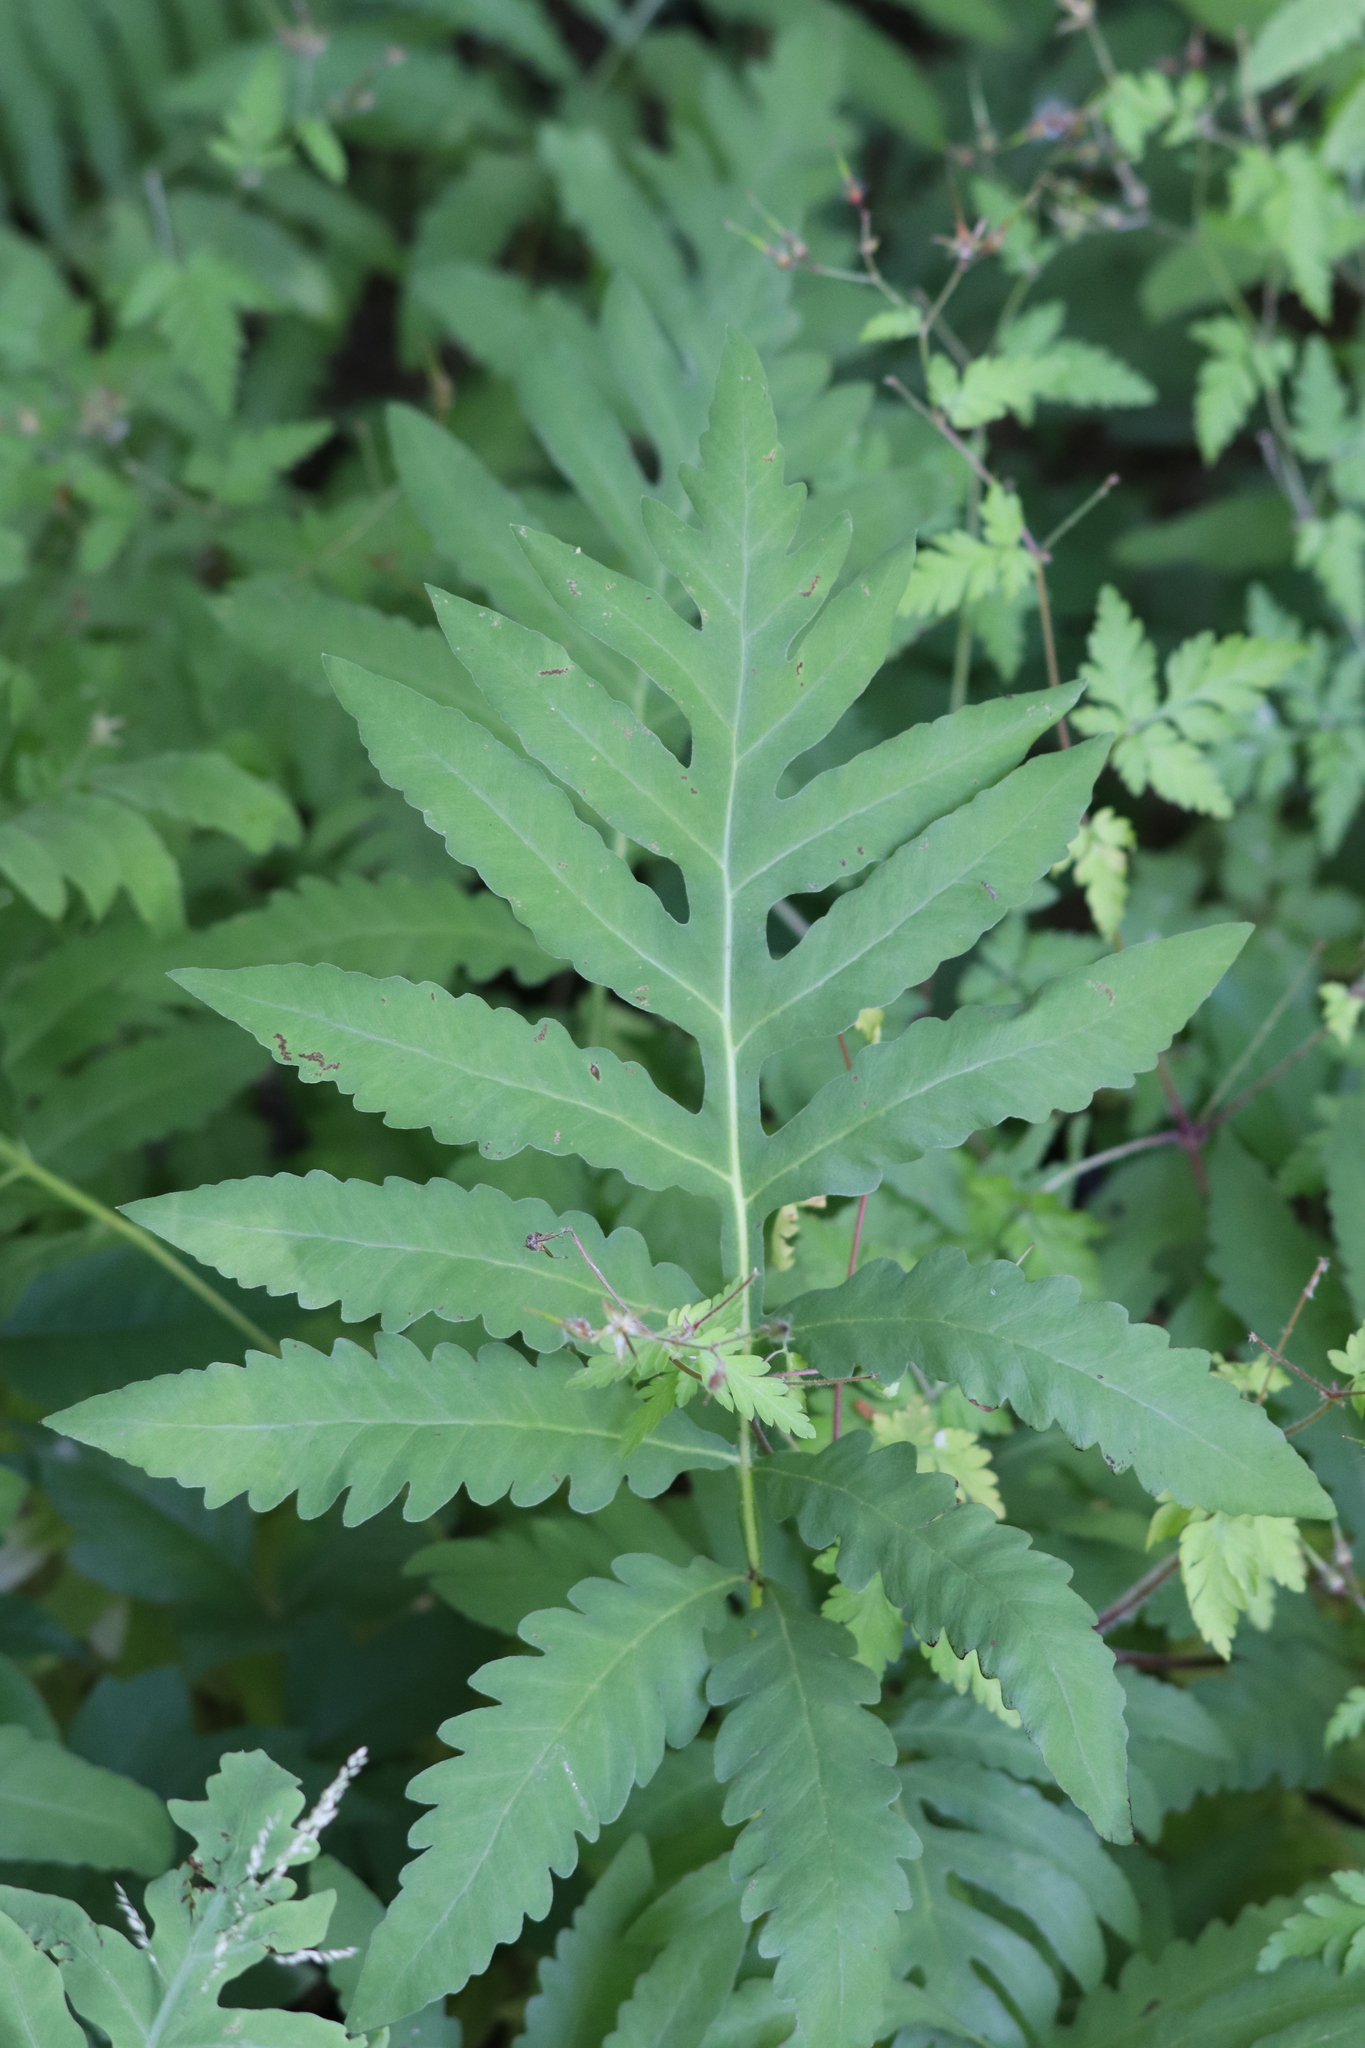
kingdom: Plantae
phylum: Tracheophyta
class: Polypodiopsida
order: Polypodiales
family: Onocleaceae
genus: Onoclea
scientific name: Onoclea sensibilis
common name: Sensitive fern
